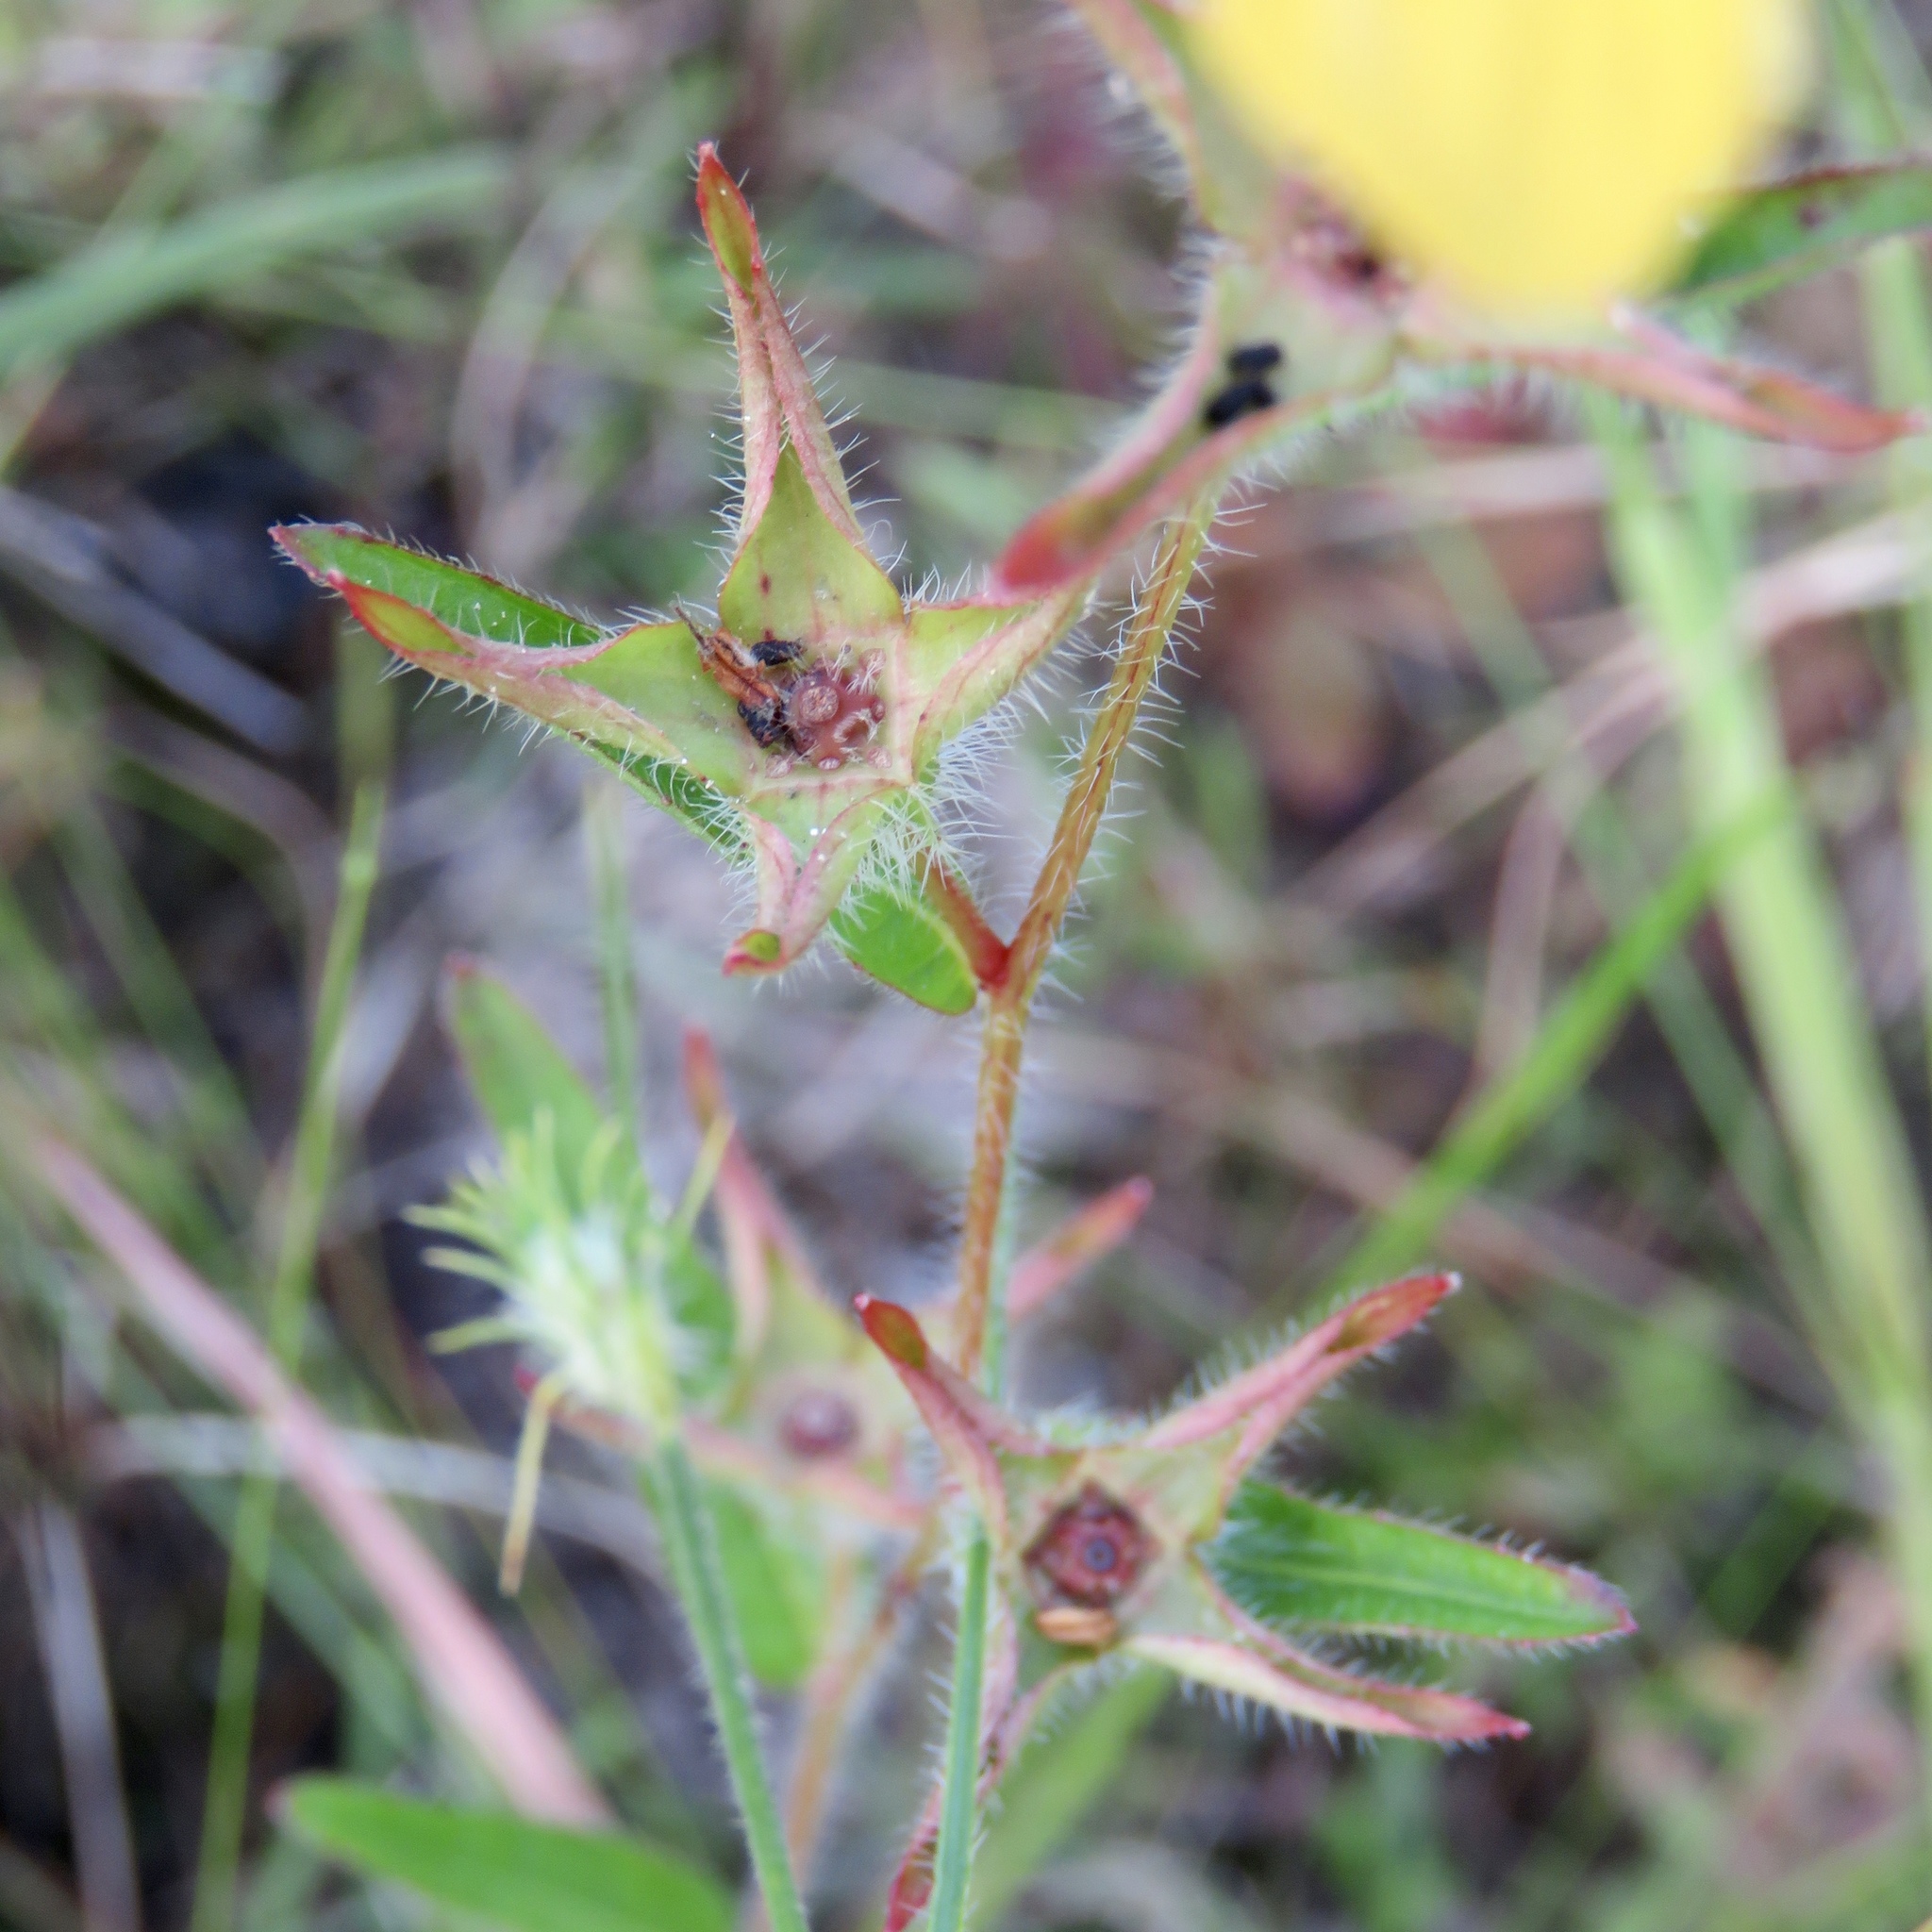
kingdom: Plantae
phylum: Tracheophyta
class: Magnoliopsida
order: Myrtales
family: Onagraceae
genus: Ludwigia
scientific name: Ludwigia hirtella
